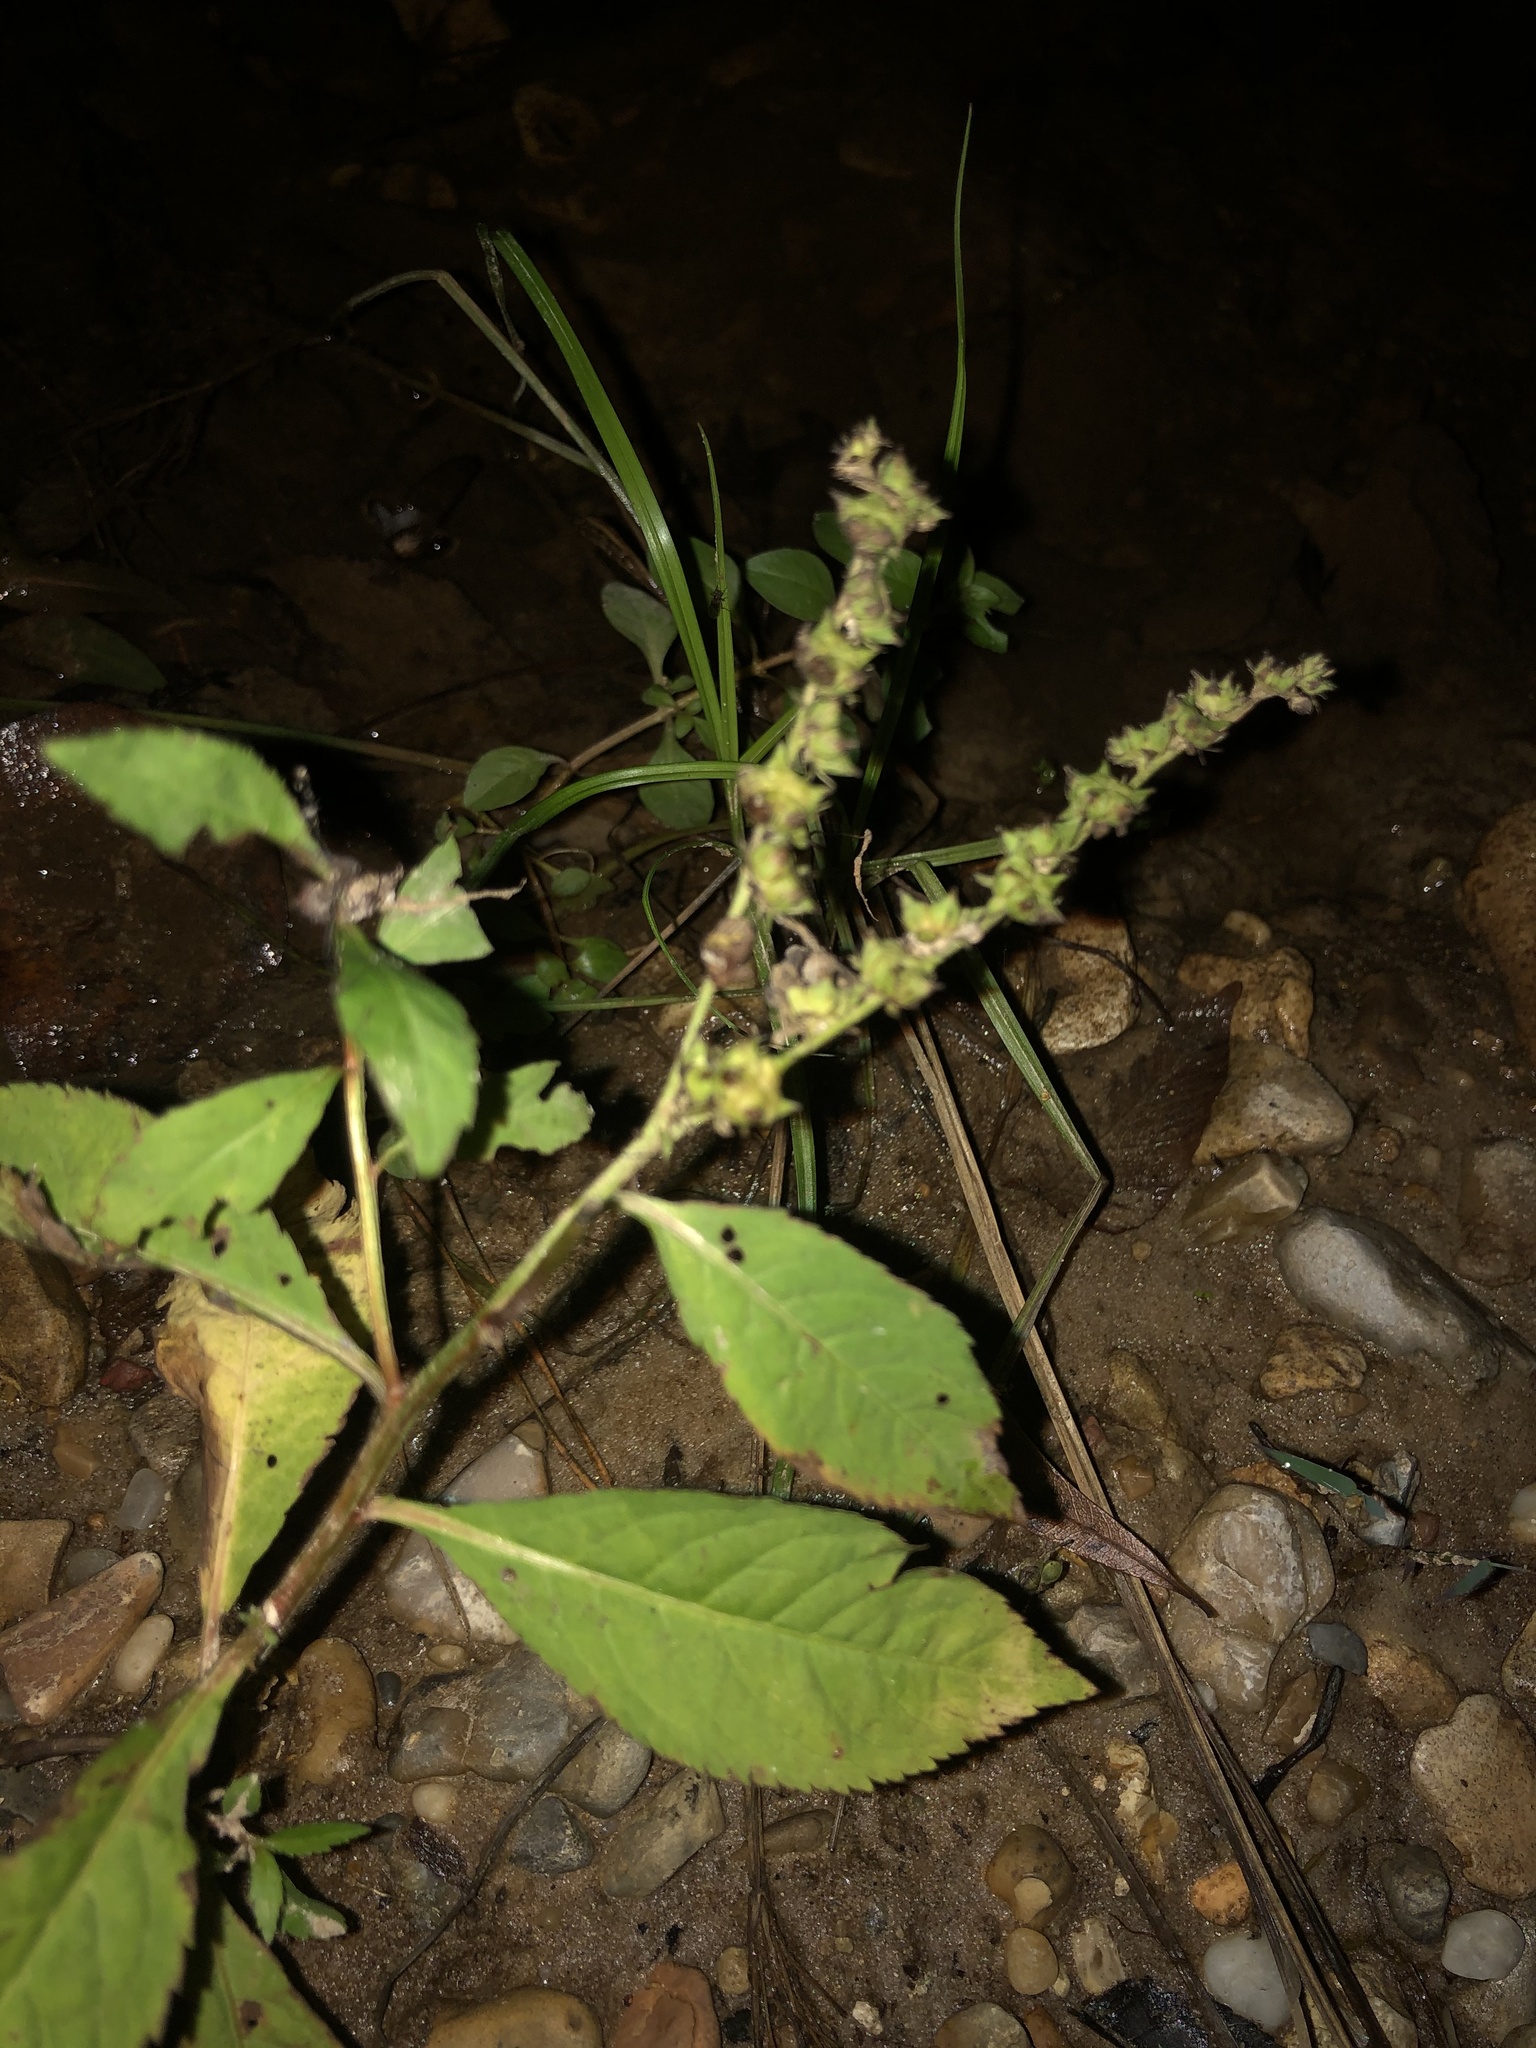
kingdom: Plantae
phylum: Tracheophyta
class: Magnoliopsida
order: Saxifragales
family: Penthoraceae
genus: Penthorum
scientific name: Penthorum sedoides
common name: Ditch stonecrop
